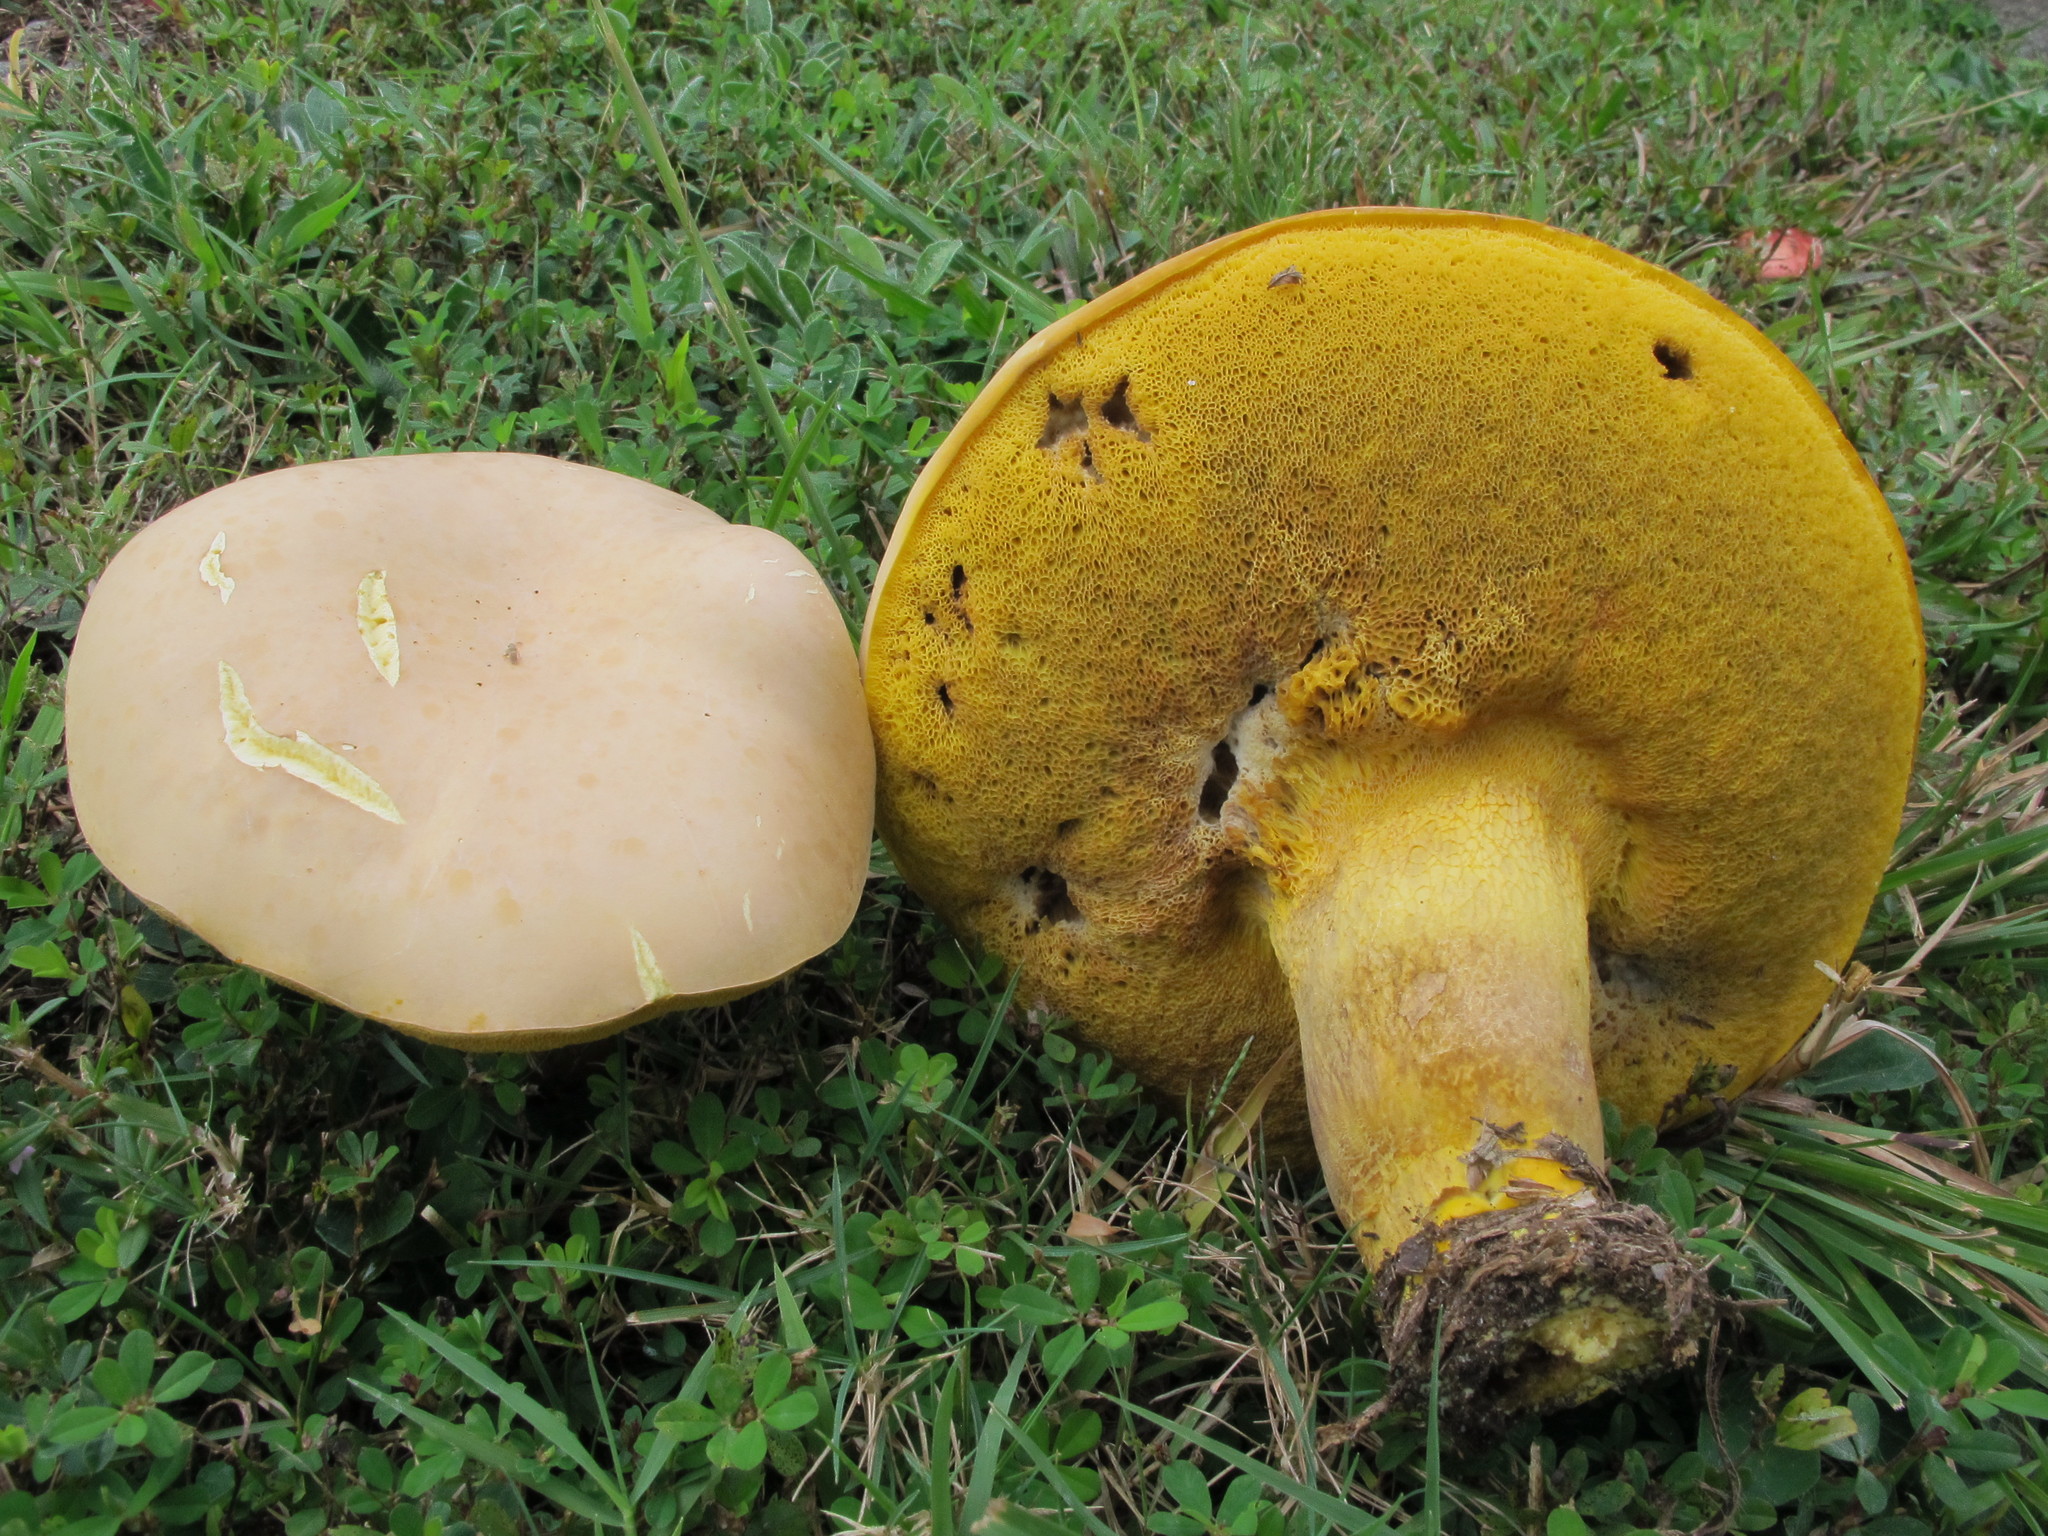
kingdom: Fungi
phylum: Basidiomycota
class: Agaricomycetes
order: Boletales
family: Boletaceae
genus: Retiboletus
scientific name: Retiboletus ornatipes
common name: Ornate-stalked bolete
